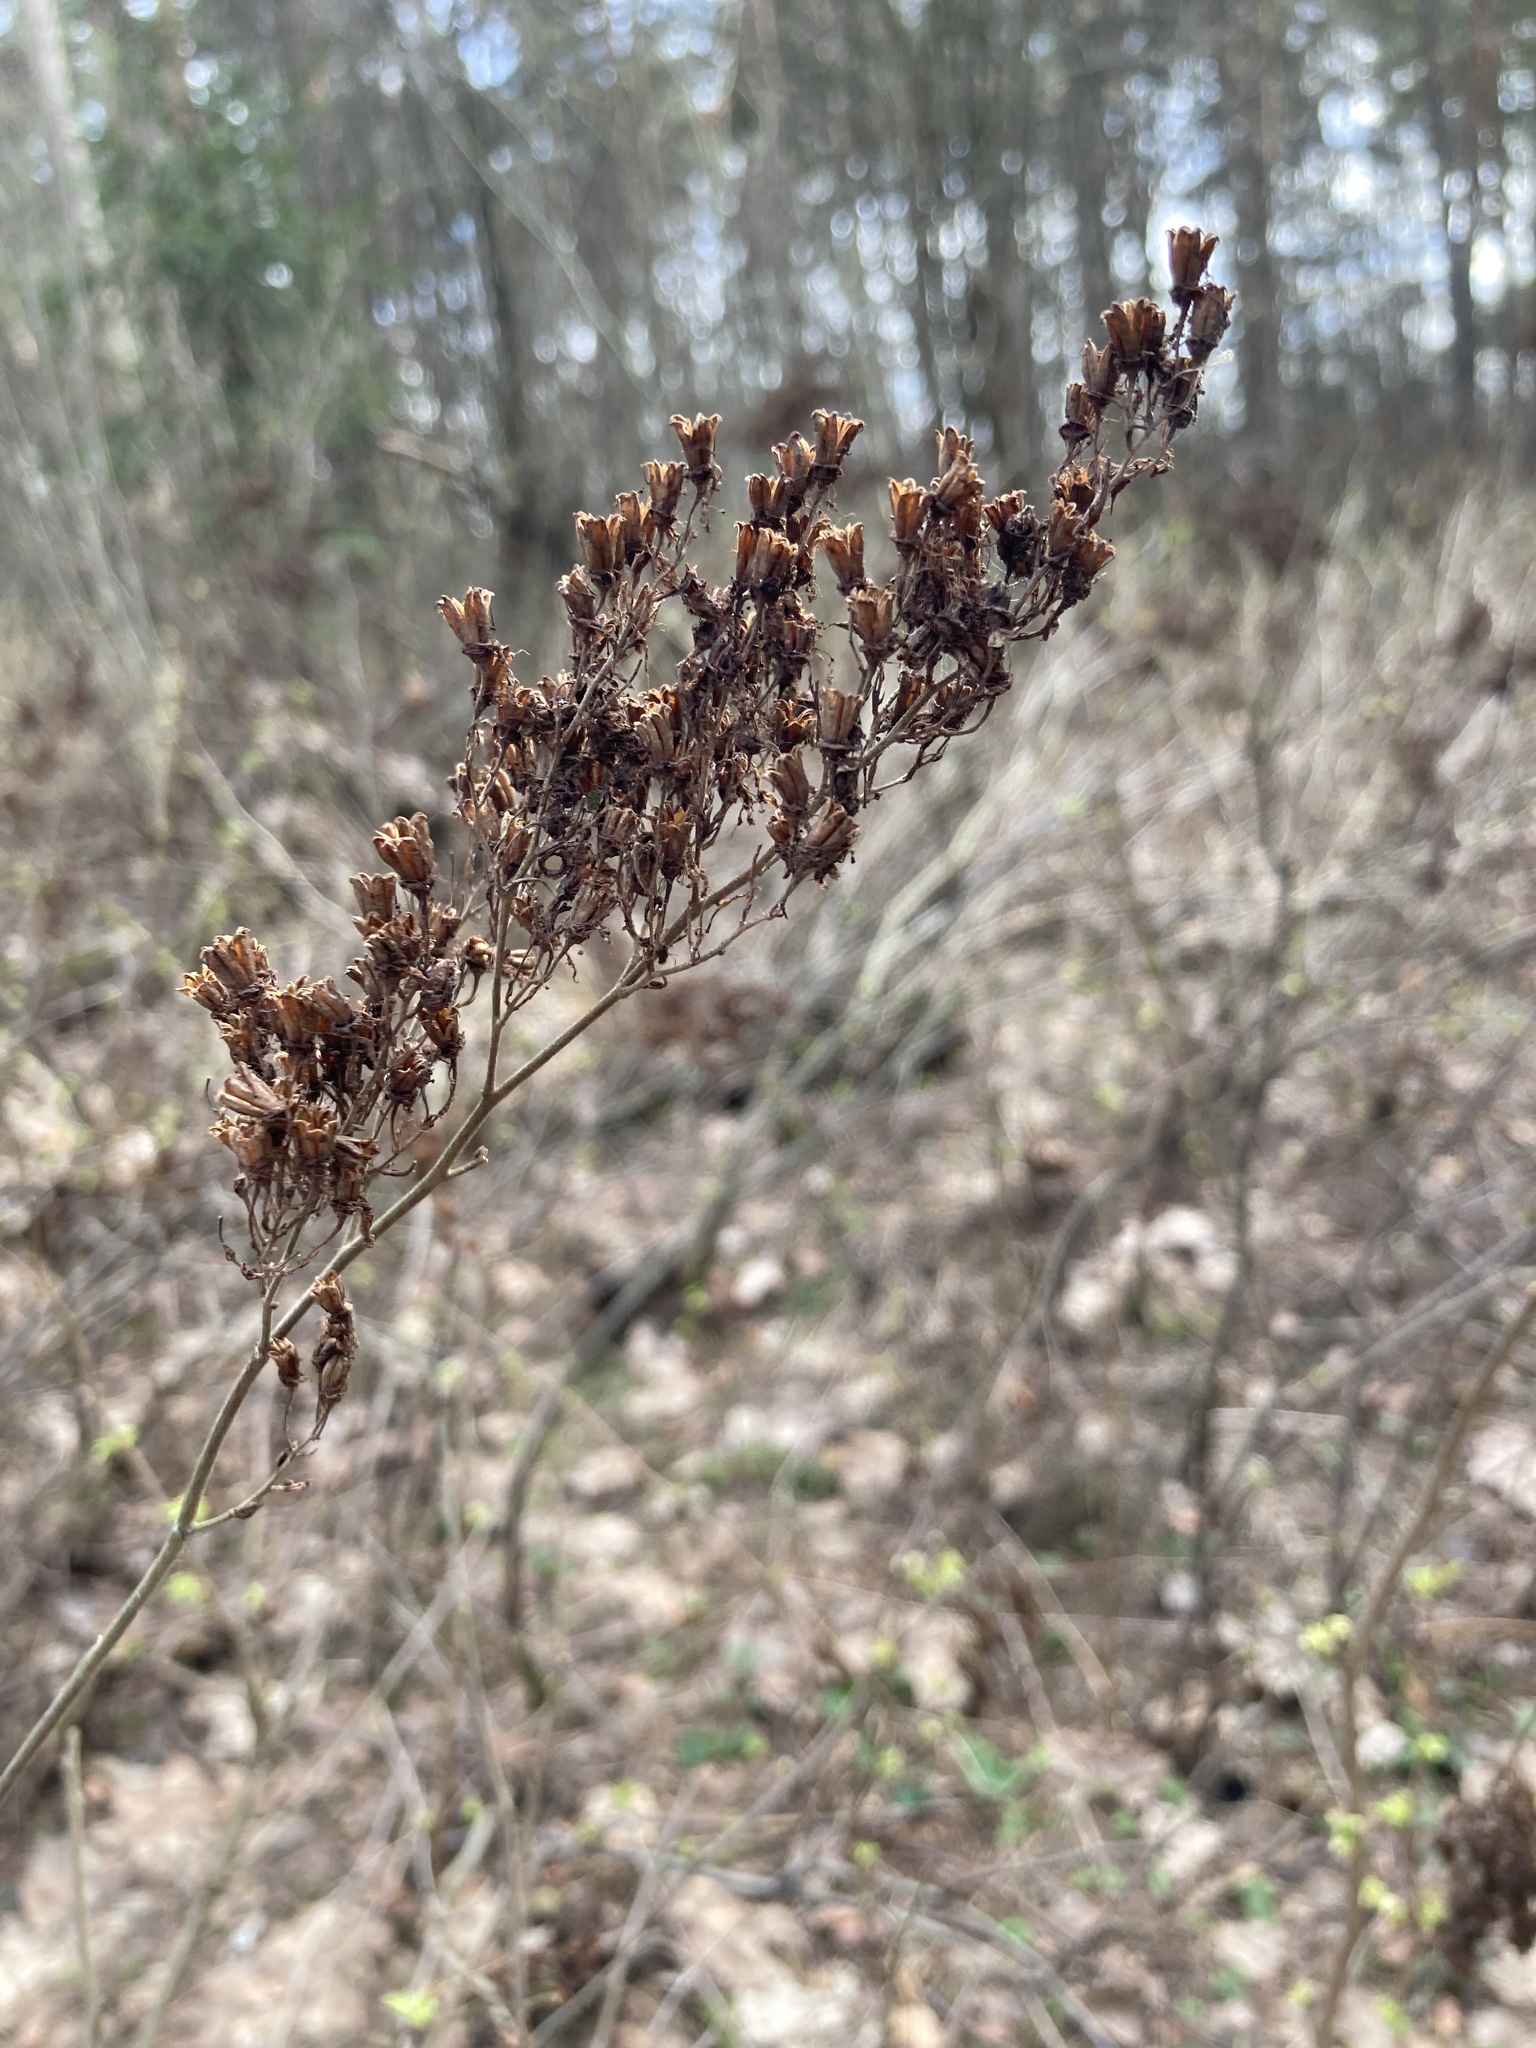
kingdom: Plantae
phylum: Tracheophyta
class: Magnoliopsida
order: Rosales
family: Rosaceae
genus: Sorbaria
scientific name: Sorbaria sorbifolia
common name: False spiraea
